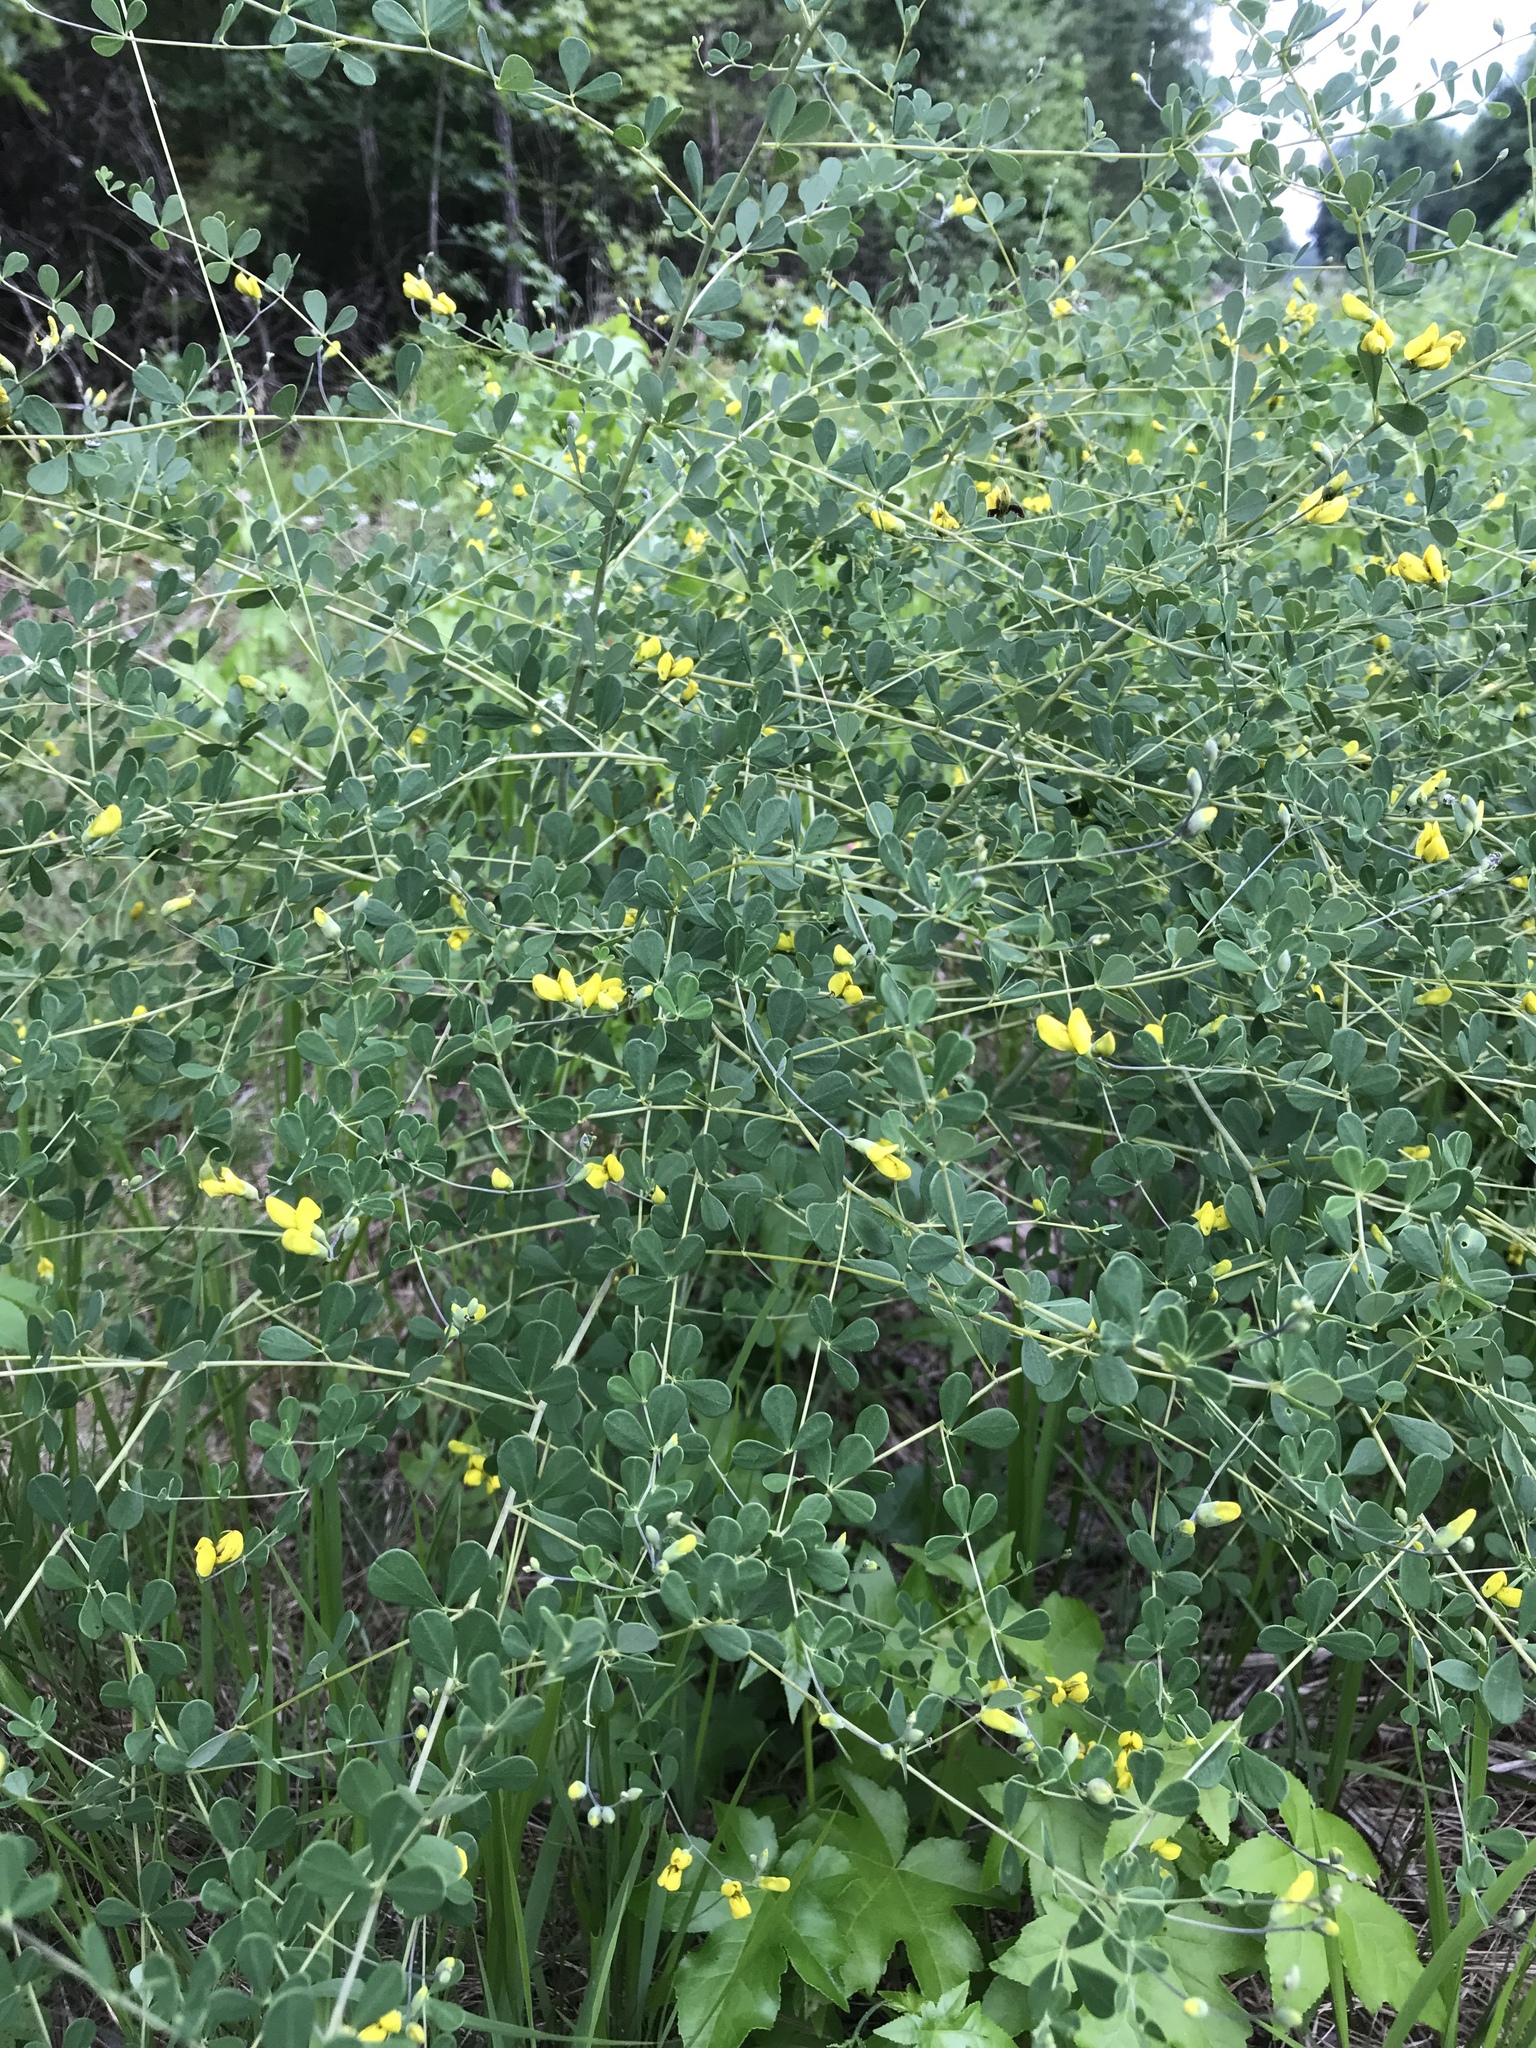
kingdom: Plantae
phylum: Tracheophyta
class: Magnoliopsida
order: Fabales
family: Fabaceae
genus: Baptisia
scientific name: Baptisia tinctoria
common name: Wild indigo
